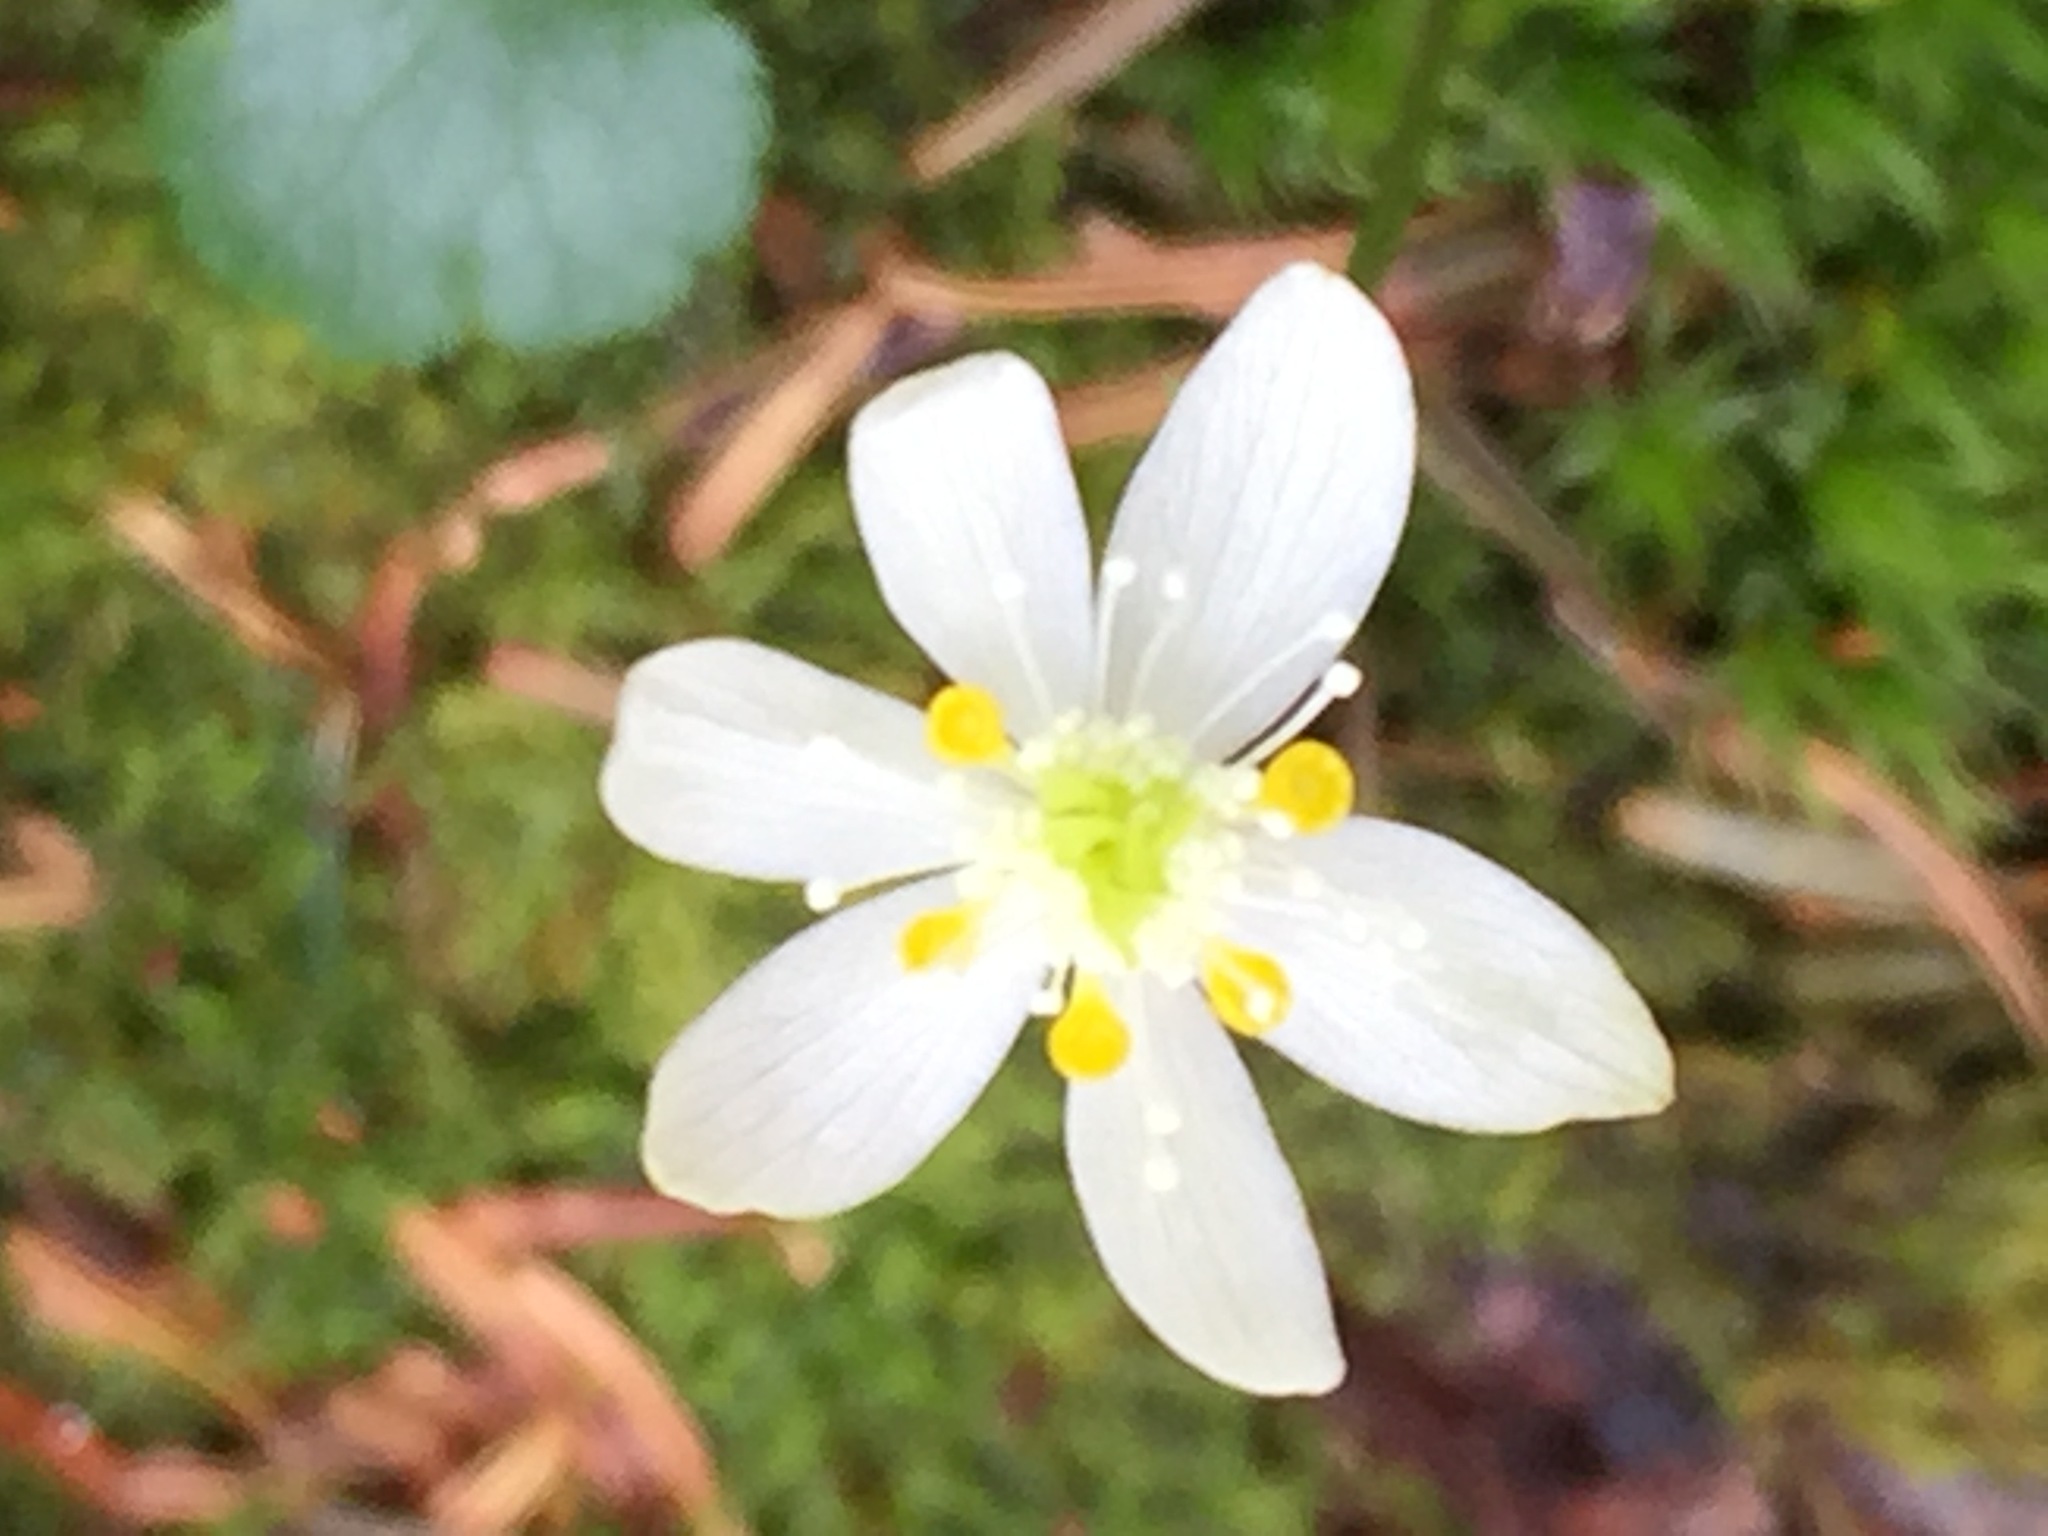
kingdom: Plantae
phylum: Tracheophyta
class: Magnoliopsida
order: Ranunculales
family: Ranunculaceae
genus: Coptis
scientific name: Coptis trifolia
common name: Canker-root
